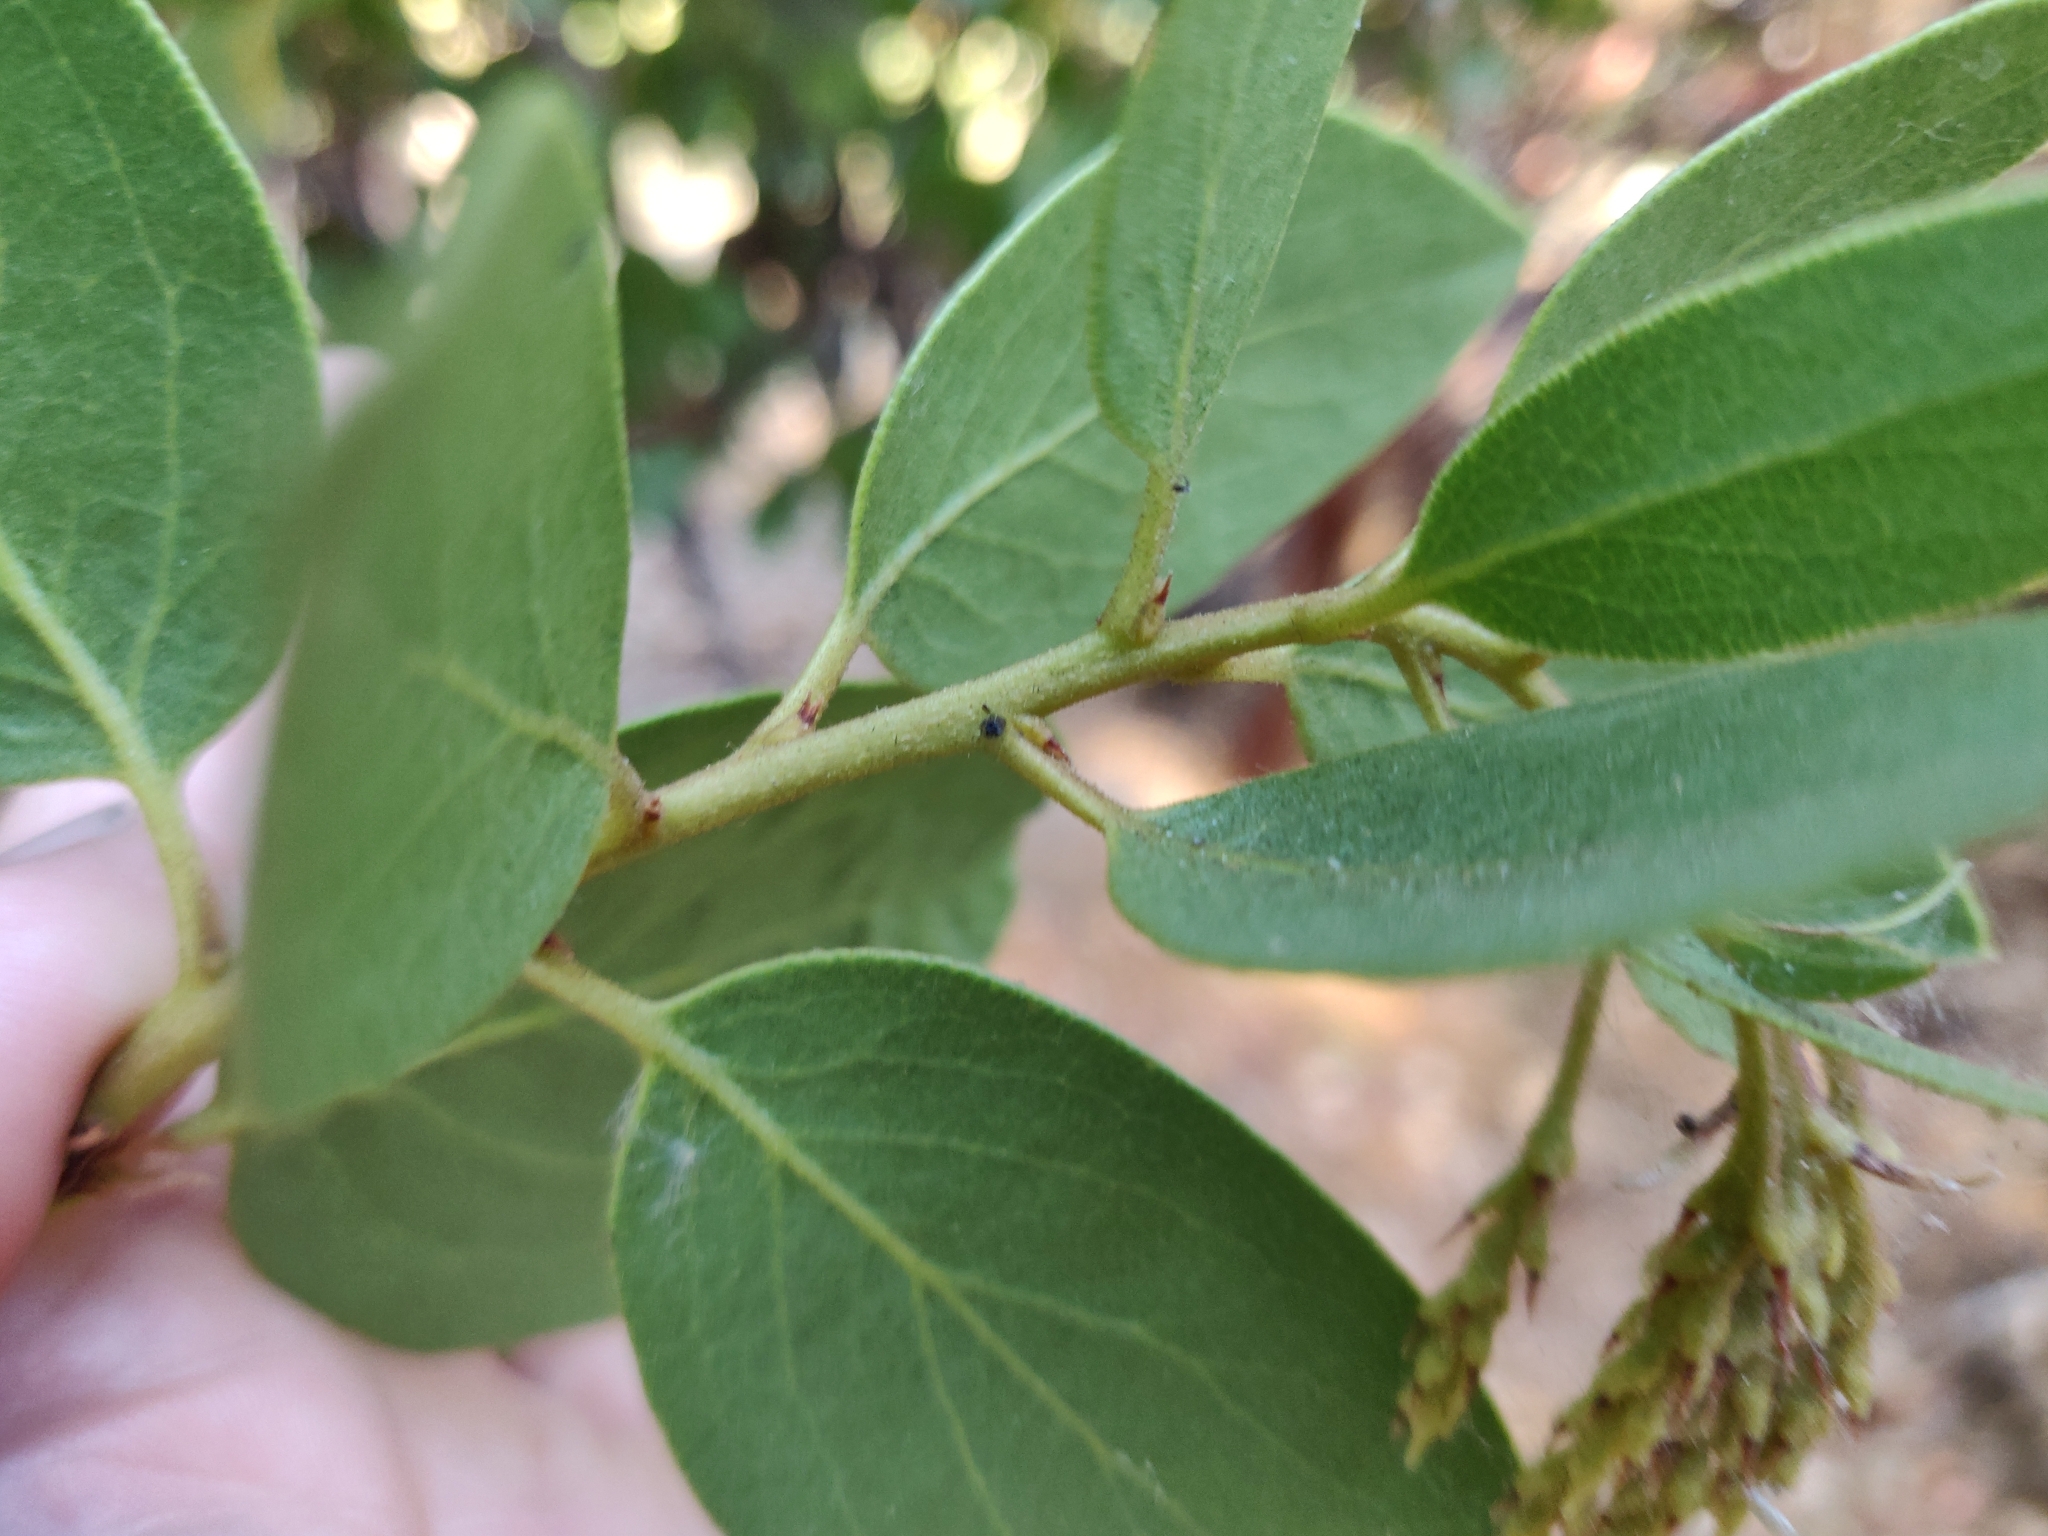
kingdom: Plantae
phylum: Tracheophyta
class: Magnoliopsida
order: Ericales
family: Ericaceae
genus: Arctostaphylos
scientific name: Arctostaphylos patula
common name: Green-leaf manzanita
